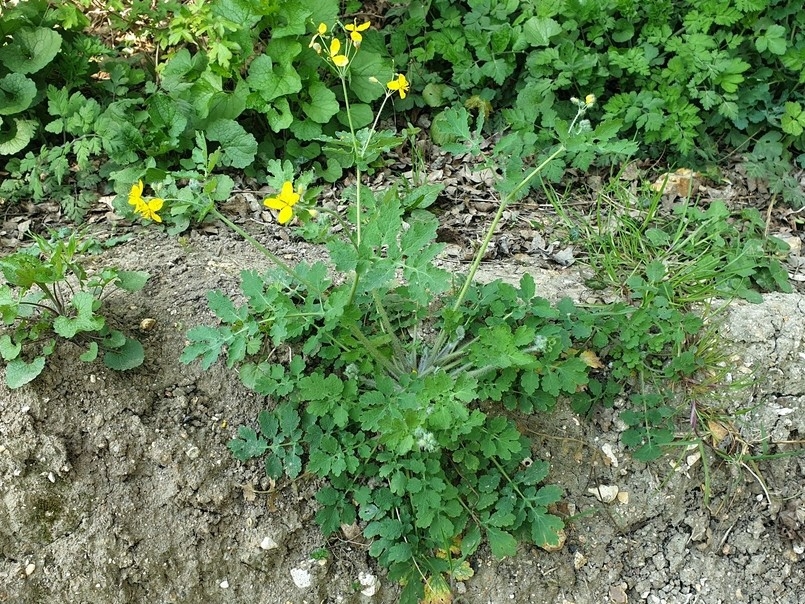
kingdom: Plantae
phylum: Tracheophyta
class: Magnoliopsida
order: Ranunculales
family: Papaveraceae
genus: Chelidonium
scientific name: Chelidonium majus
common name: Greater celandine
